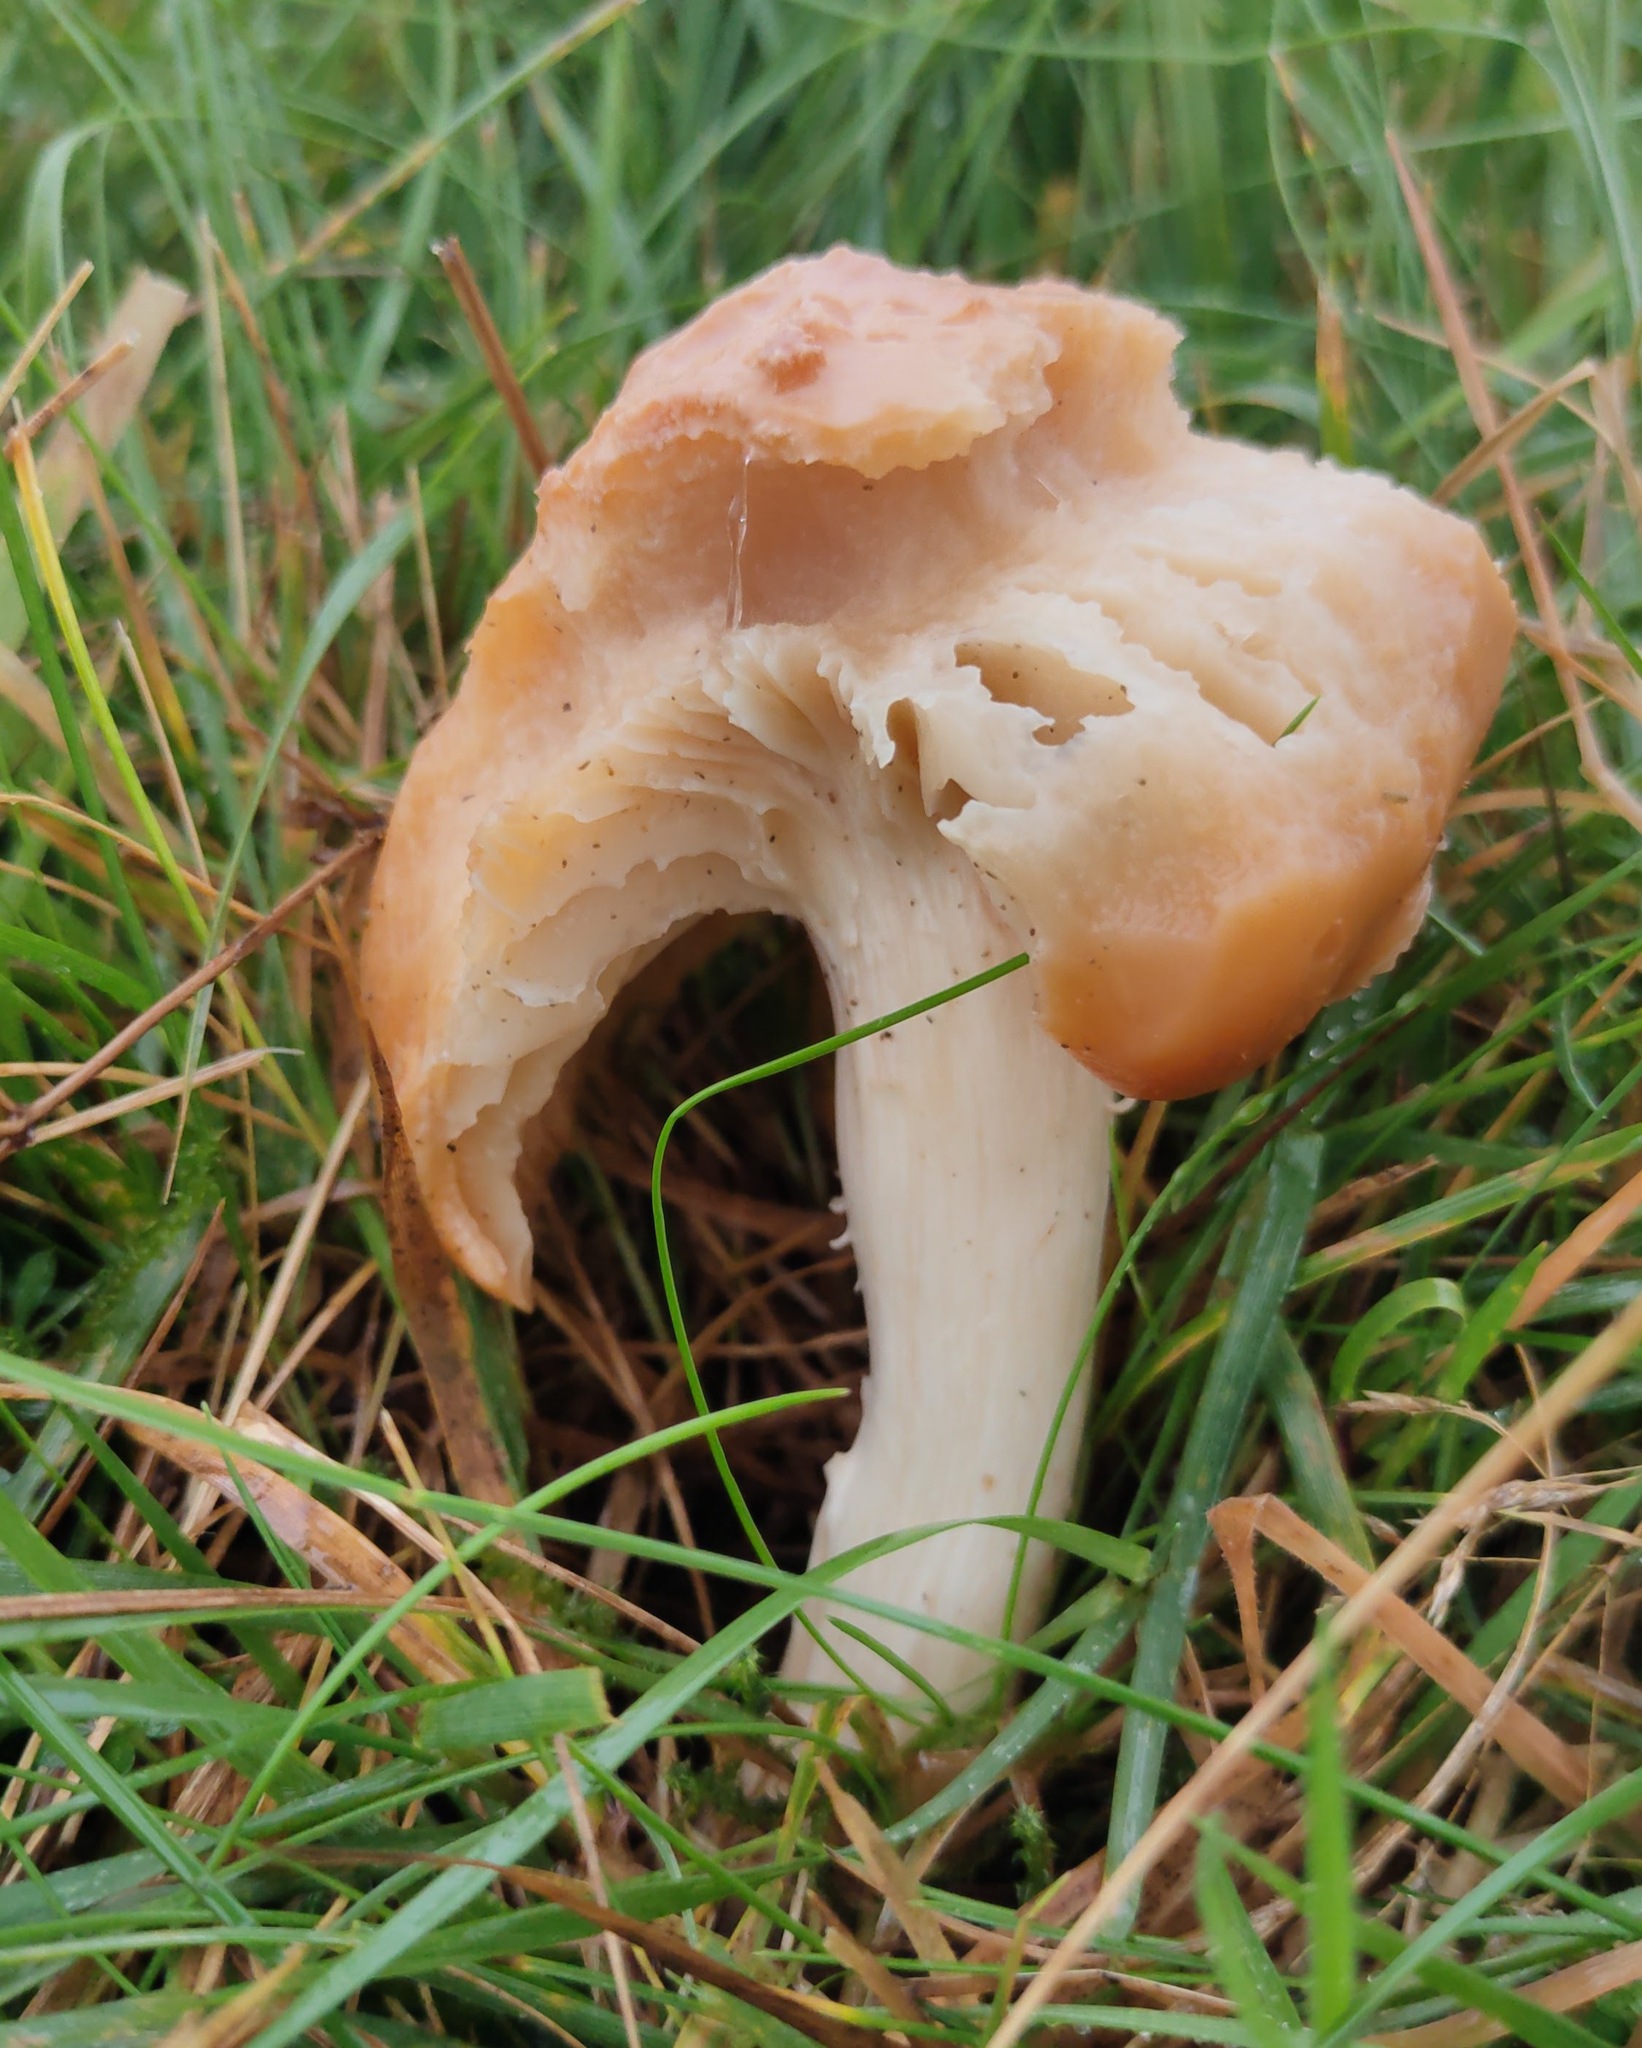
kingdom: Fungi
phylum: Basidiomycota
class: Agaricomycetes
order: Agaricales
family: Hygrophoraceae
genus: Cuphophyllus
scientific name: Cuphophyllus pratensis
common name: Meadow waxcap
